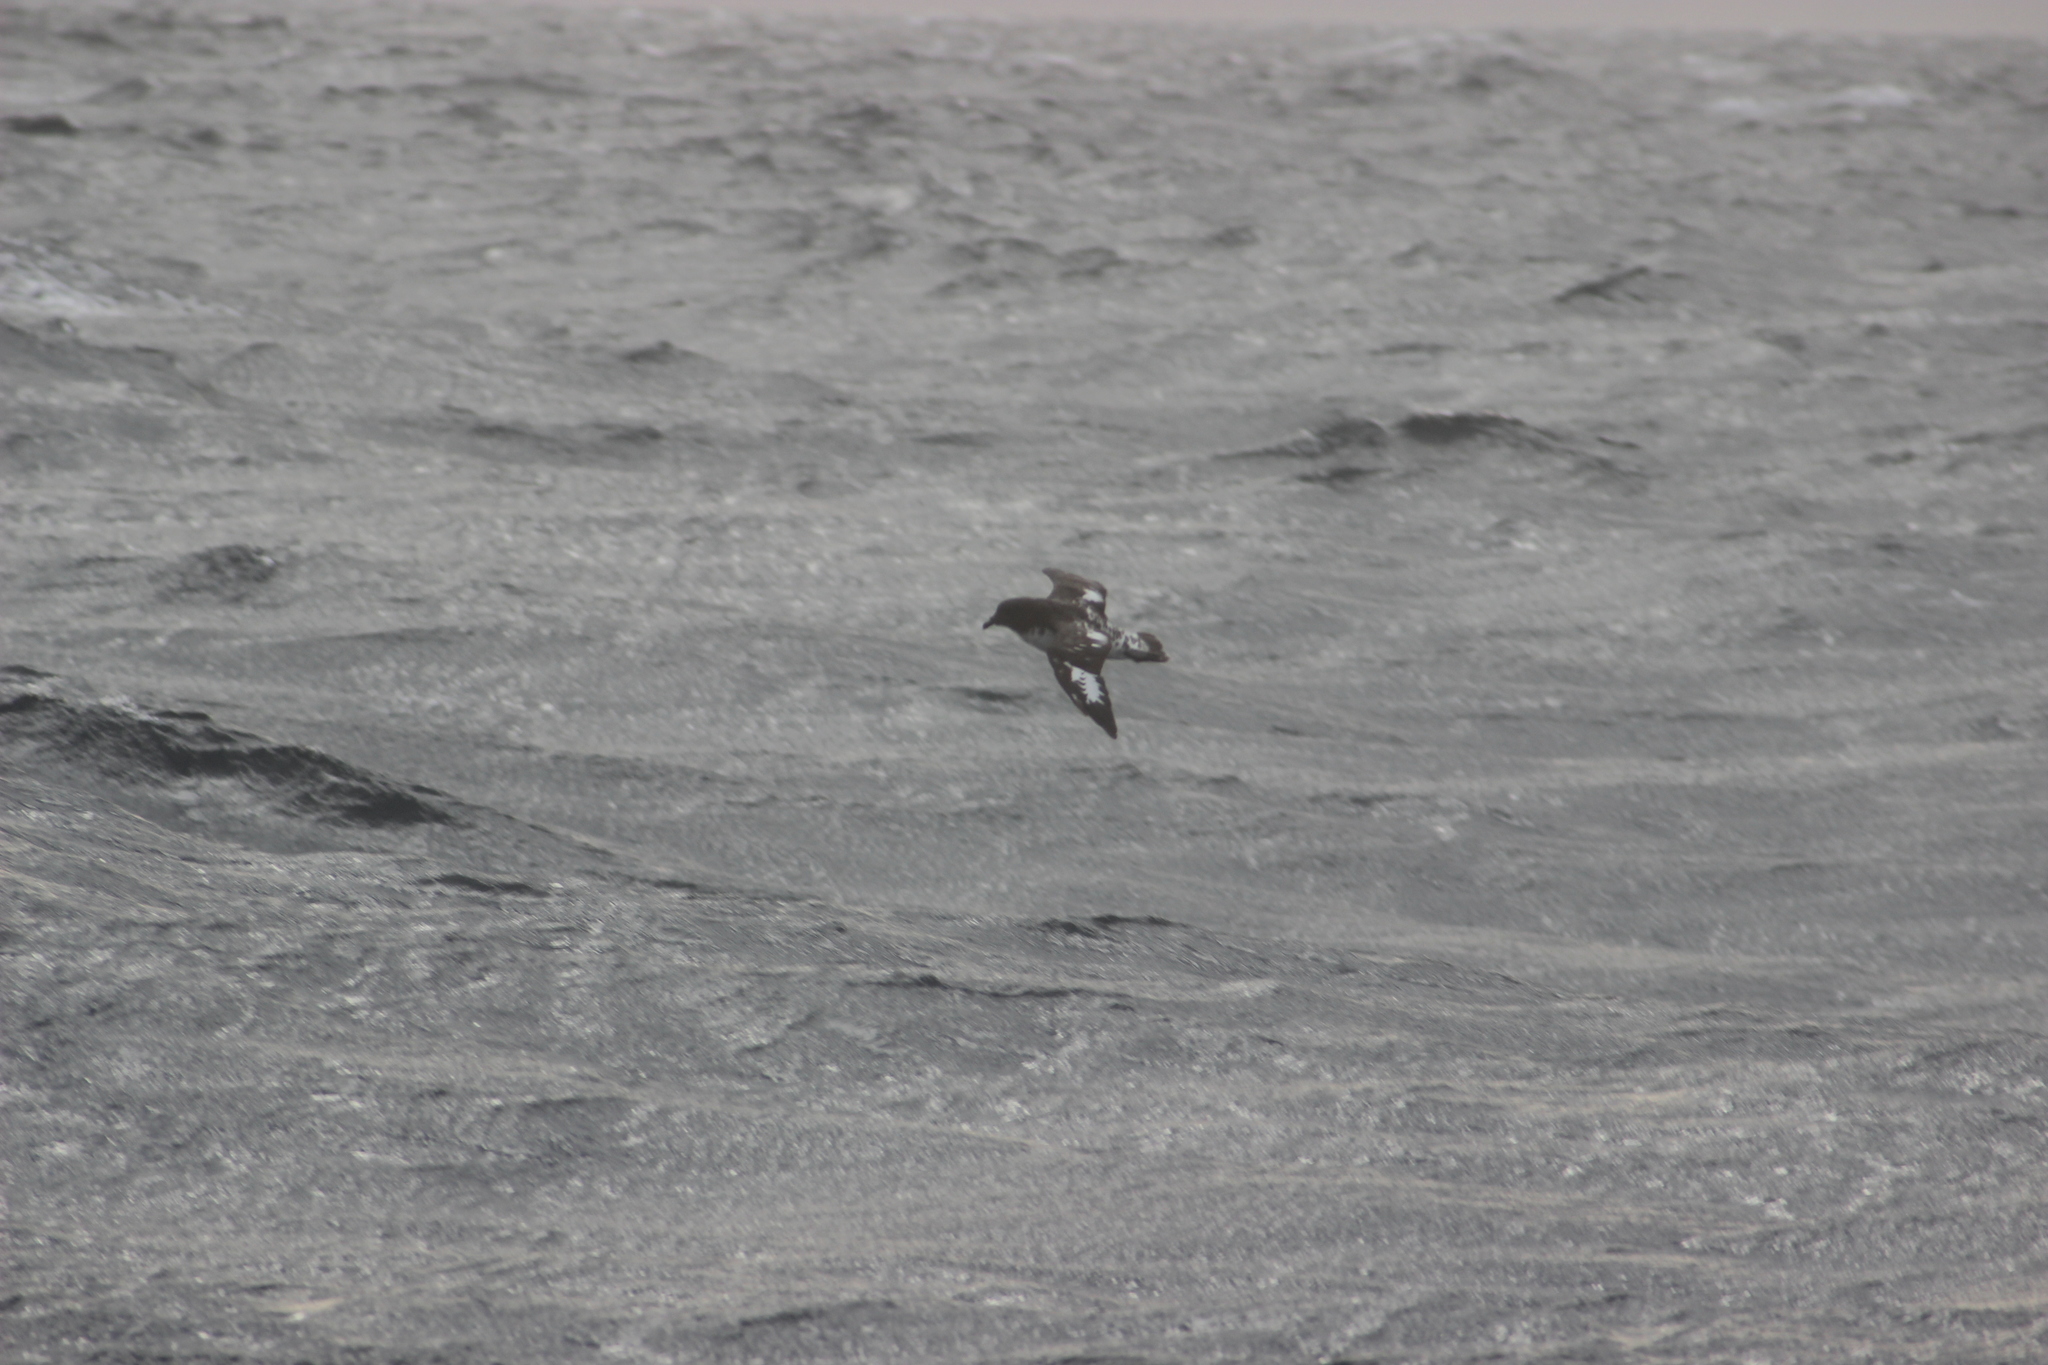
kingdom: Animalia
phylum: Chordata
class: Aves
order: Procellariiformes
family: Procellariidae
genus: Daption
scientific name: Daption capense
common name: Cape petrel
